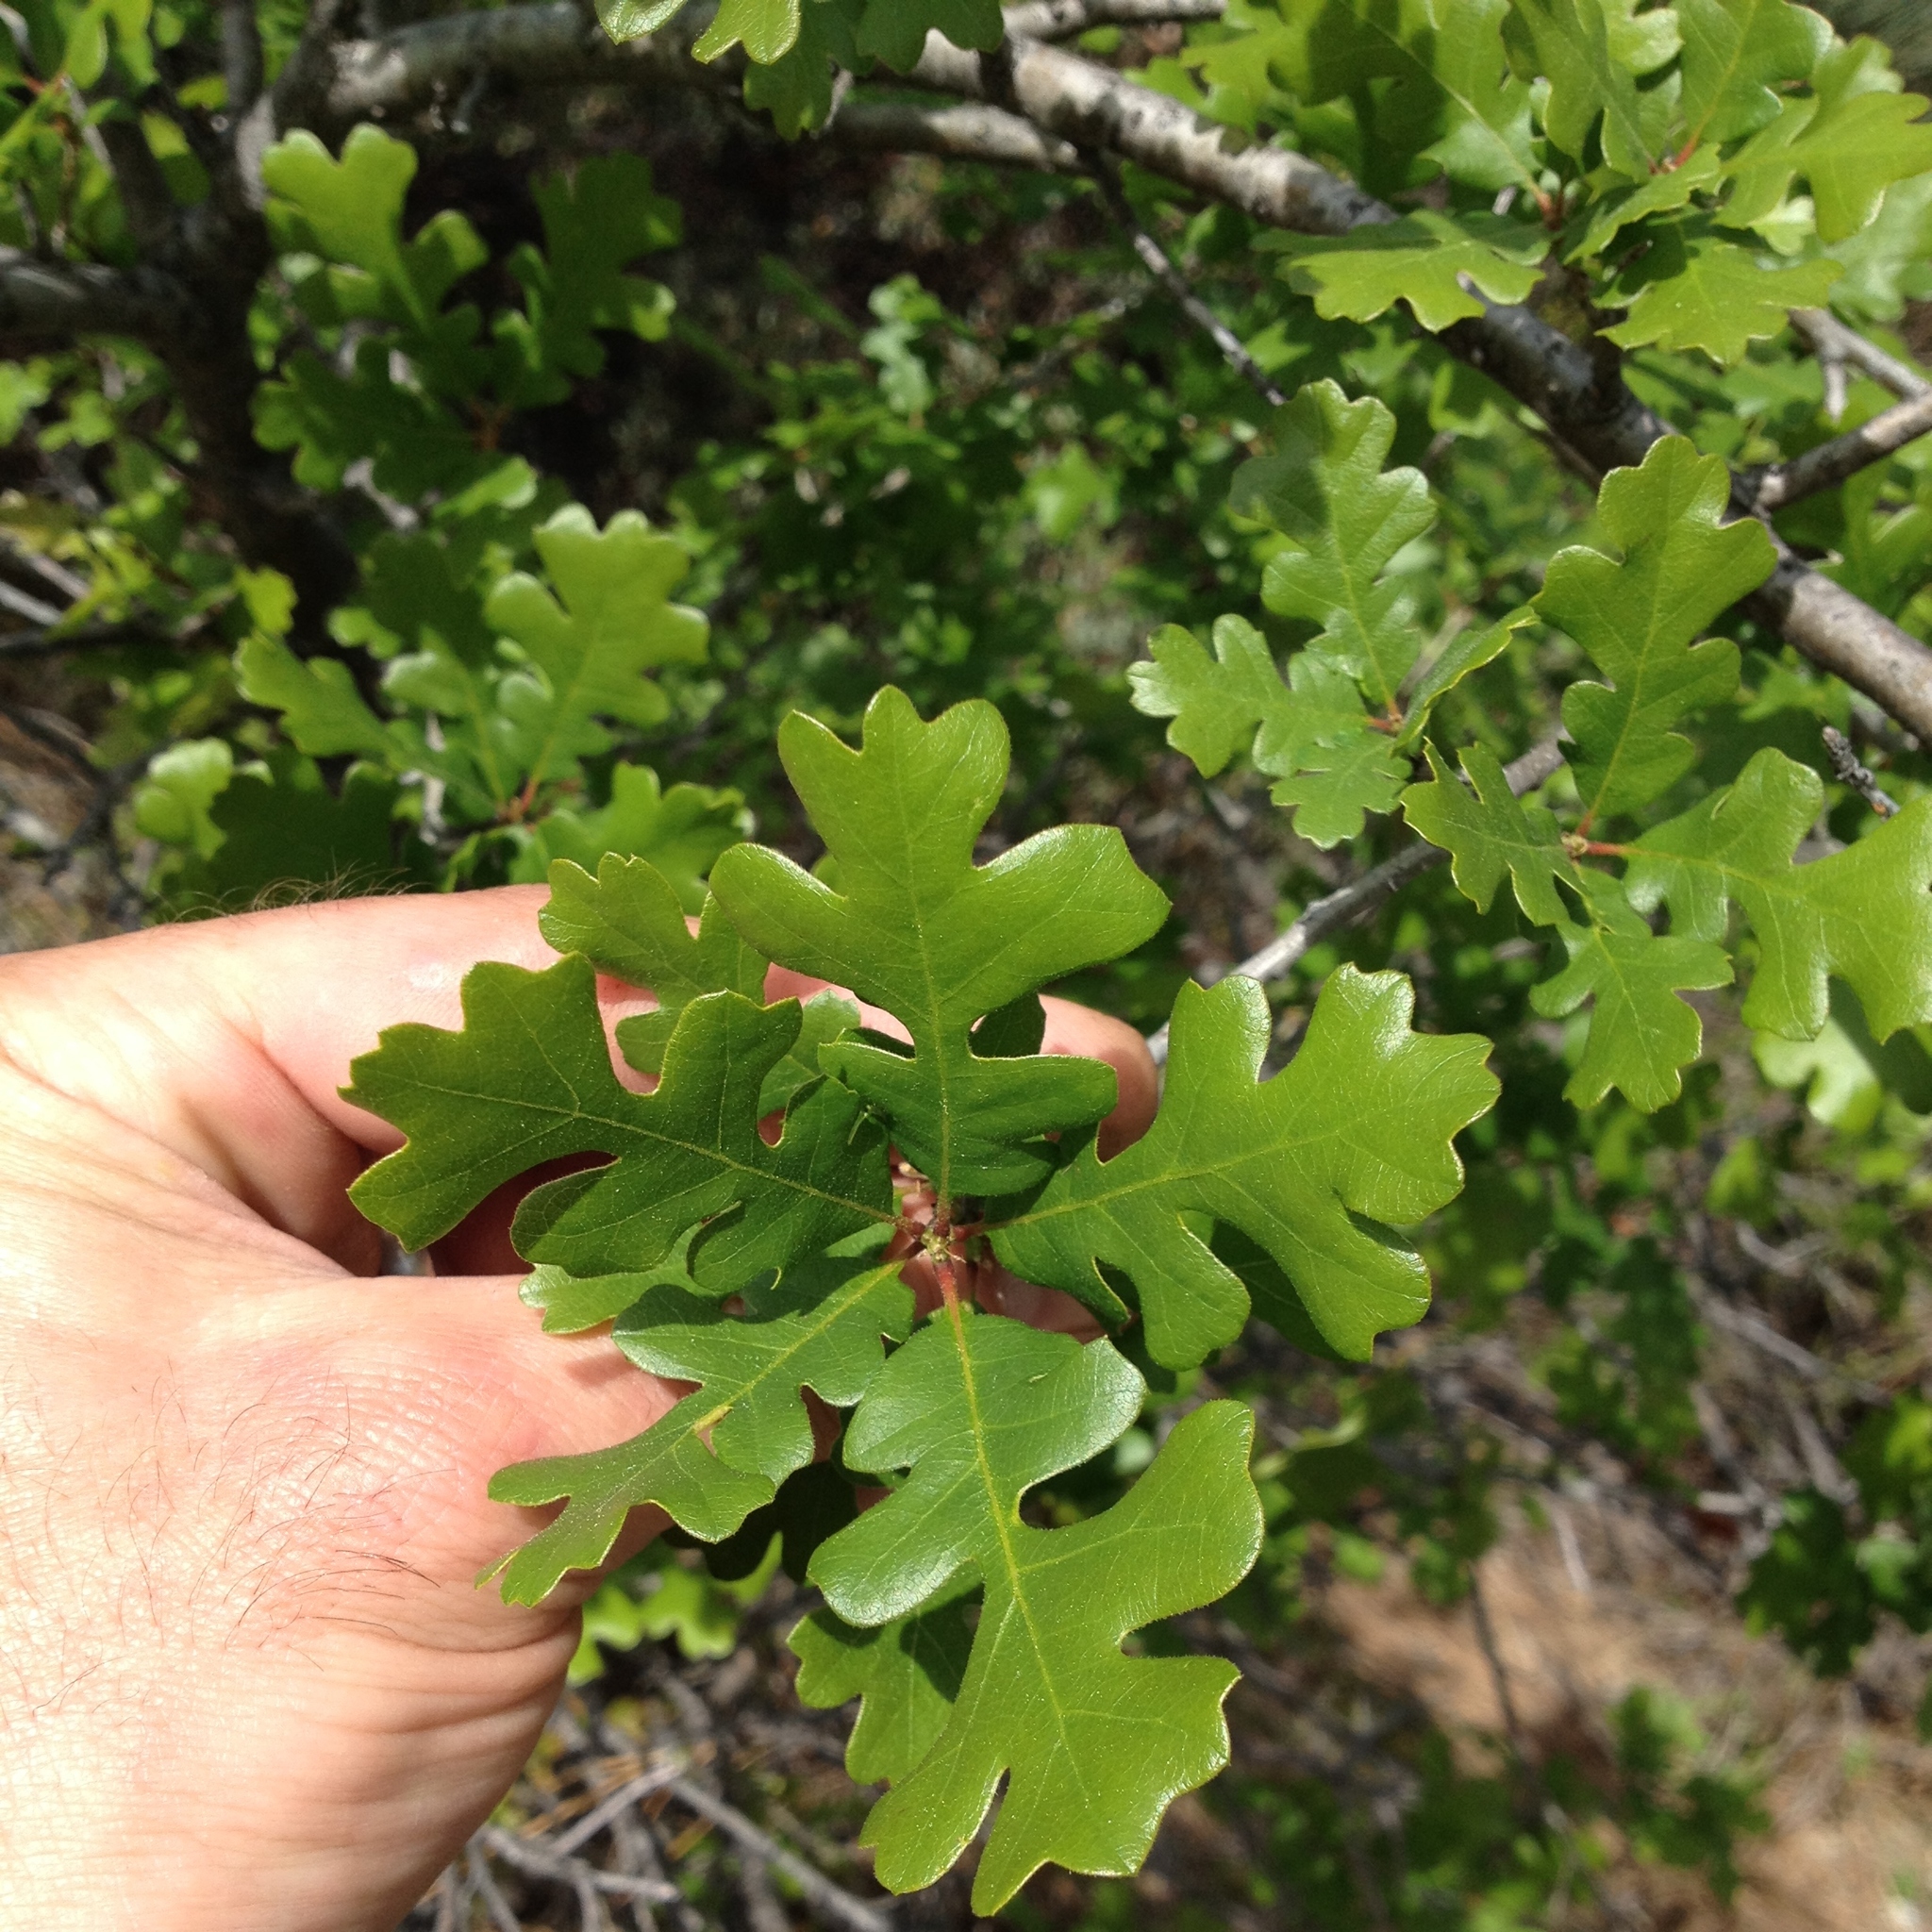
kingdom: Plantae
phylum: Tracheophyta
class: Magnoliopsida
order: Fagales
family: Fagaceae
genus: Quercus
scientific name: Quercus lobata
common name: Valley oak
